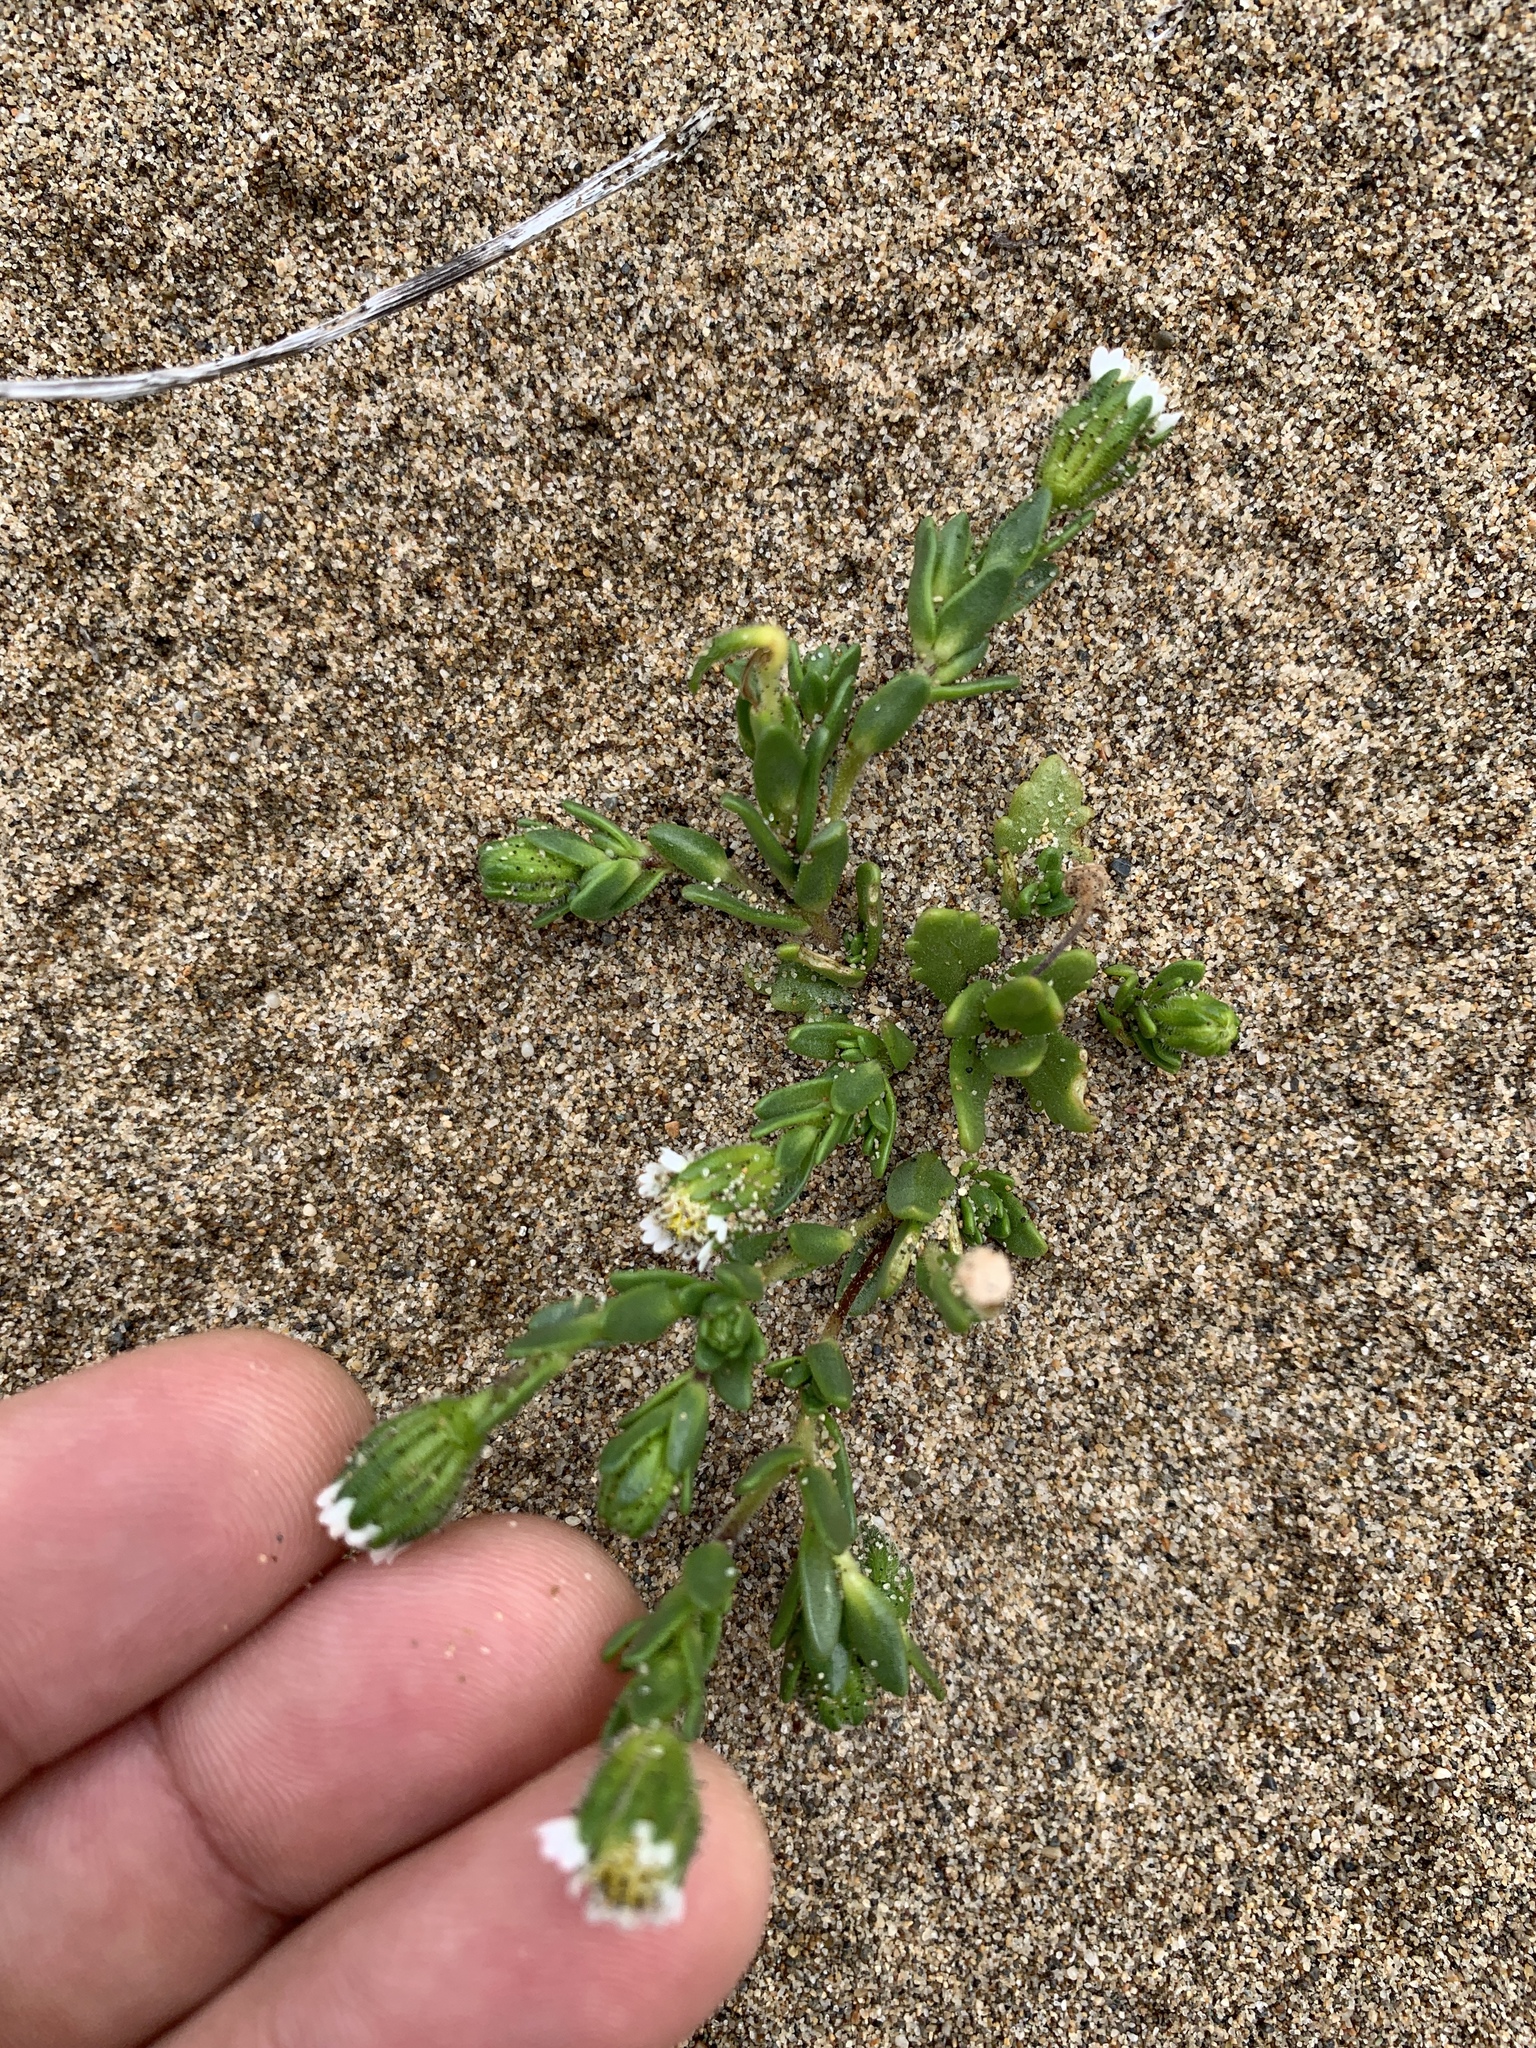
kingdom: Plantae
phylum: Tracheophyta
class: Magnoliopsida
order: Asterales
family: Asteraceae
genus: Layia
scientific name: Layia carnosa
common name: Beach layia
